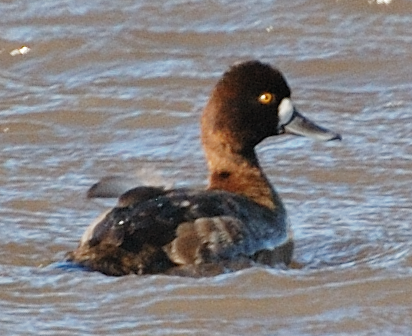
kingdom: Animalia
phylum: Chordata
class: Aves
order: Anseriformes
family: Anatidae
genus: Aythya
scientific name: Aythya affinis
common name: Lesser scaup
